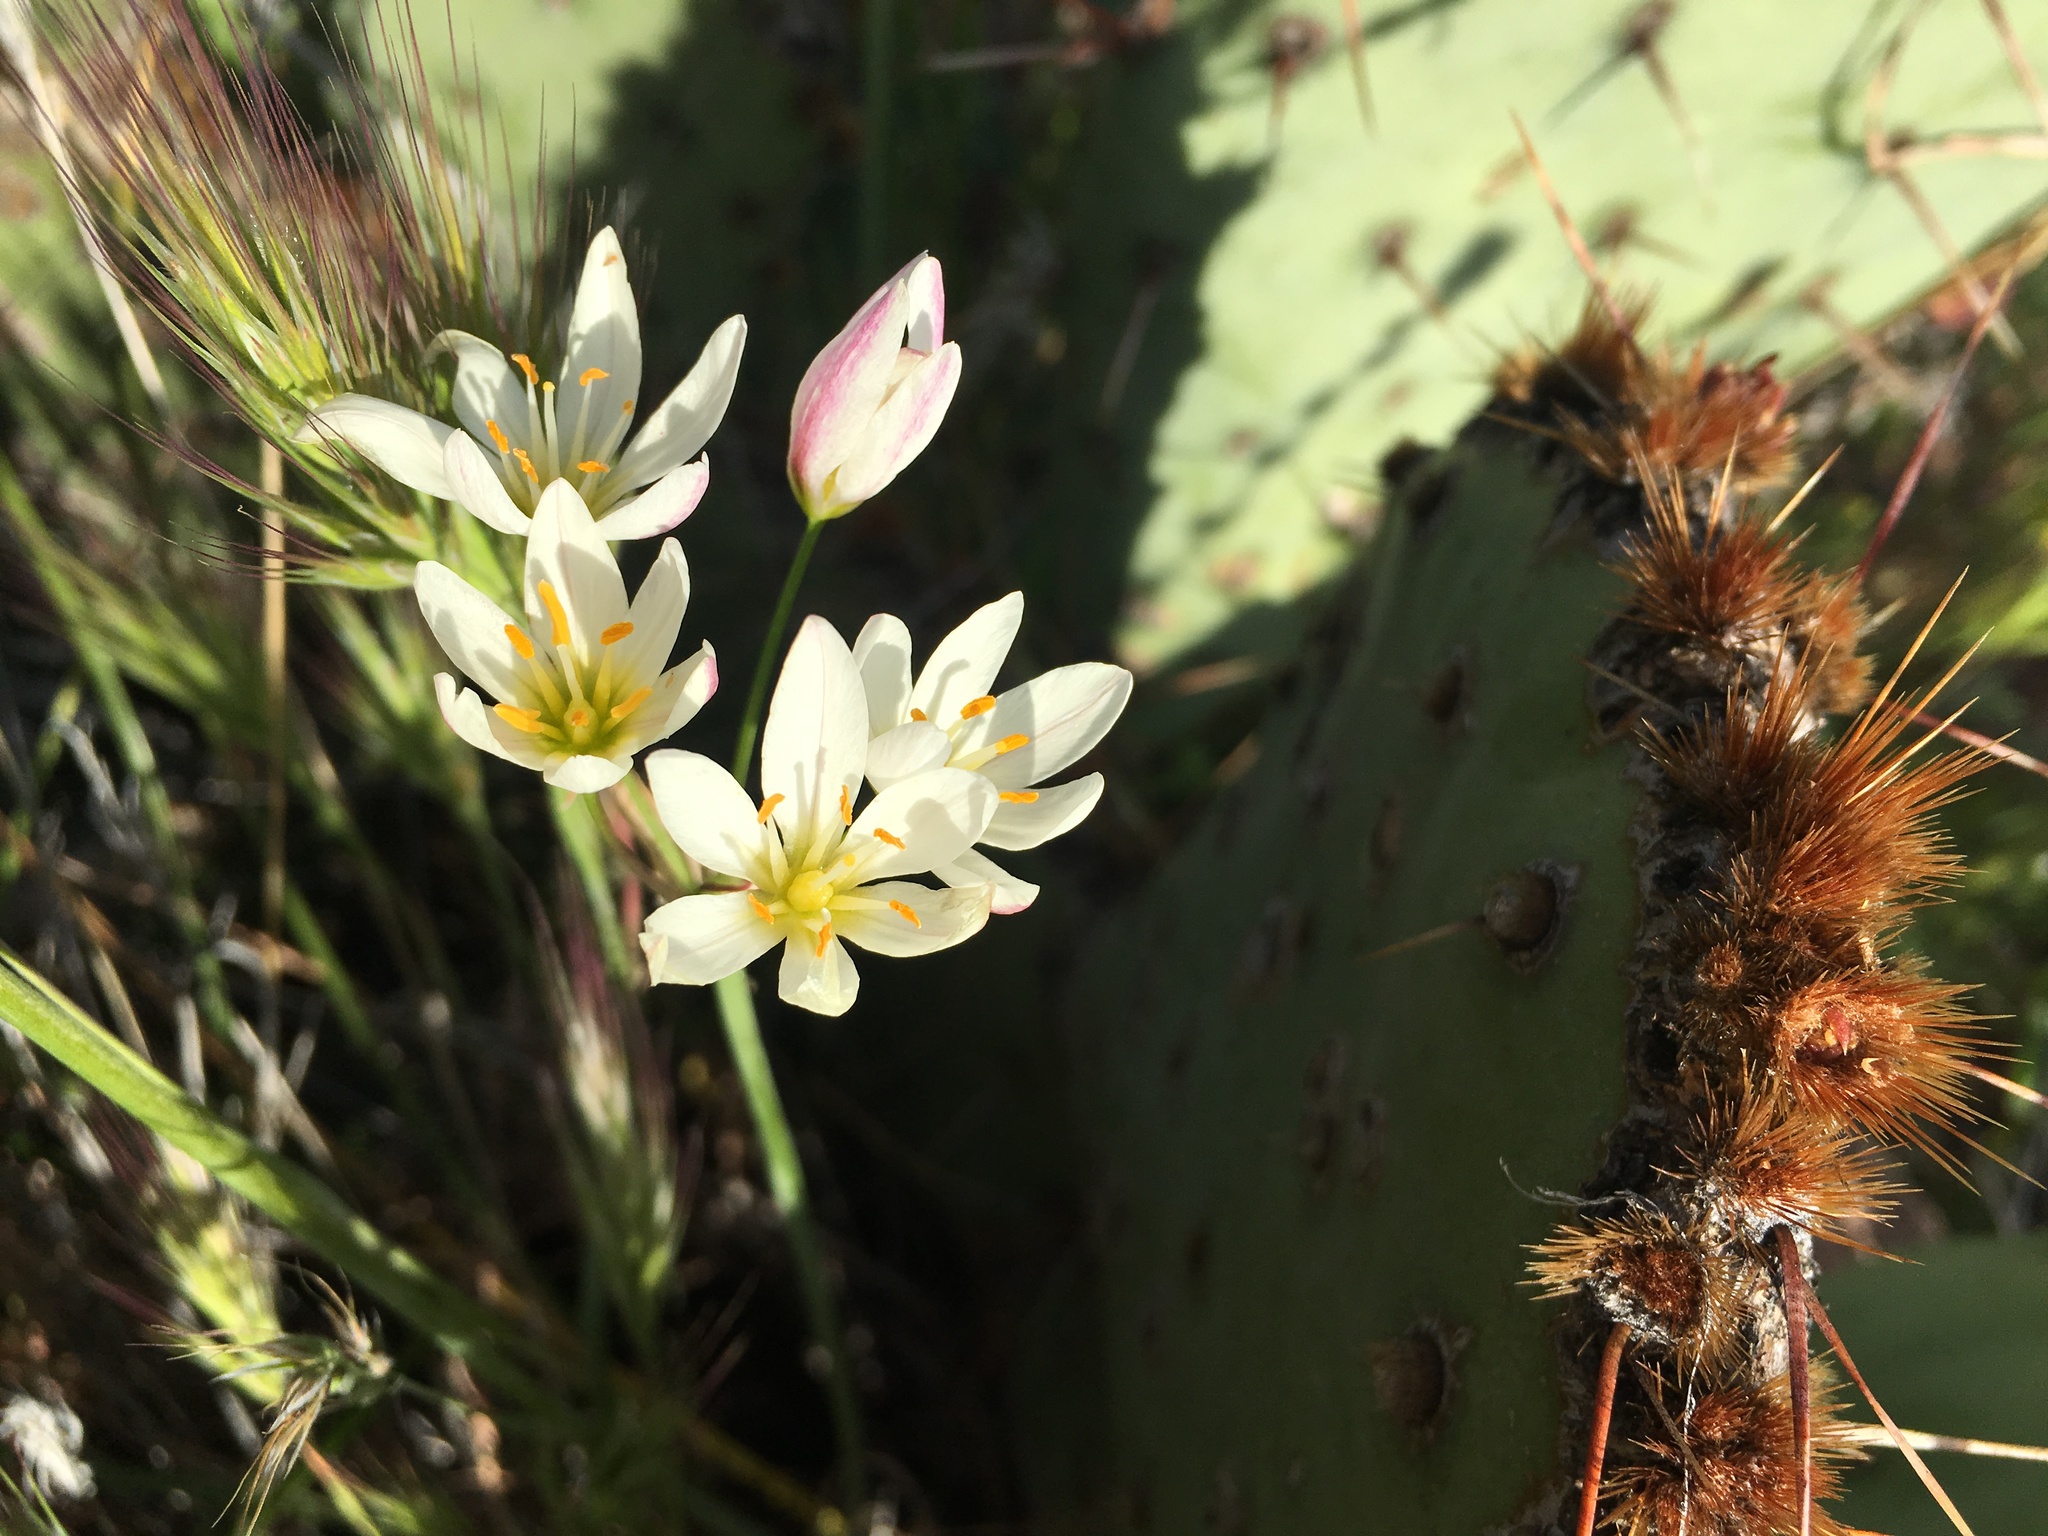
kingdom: Plantae
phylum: Tracheophyta
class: Liliopsida
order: Asparagales
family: Amaryllidaceae
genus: Nothoscordum
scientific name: Nothoscordum bivalve
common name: Crow-poison
